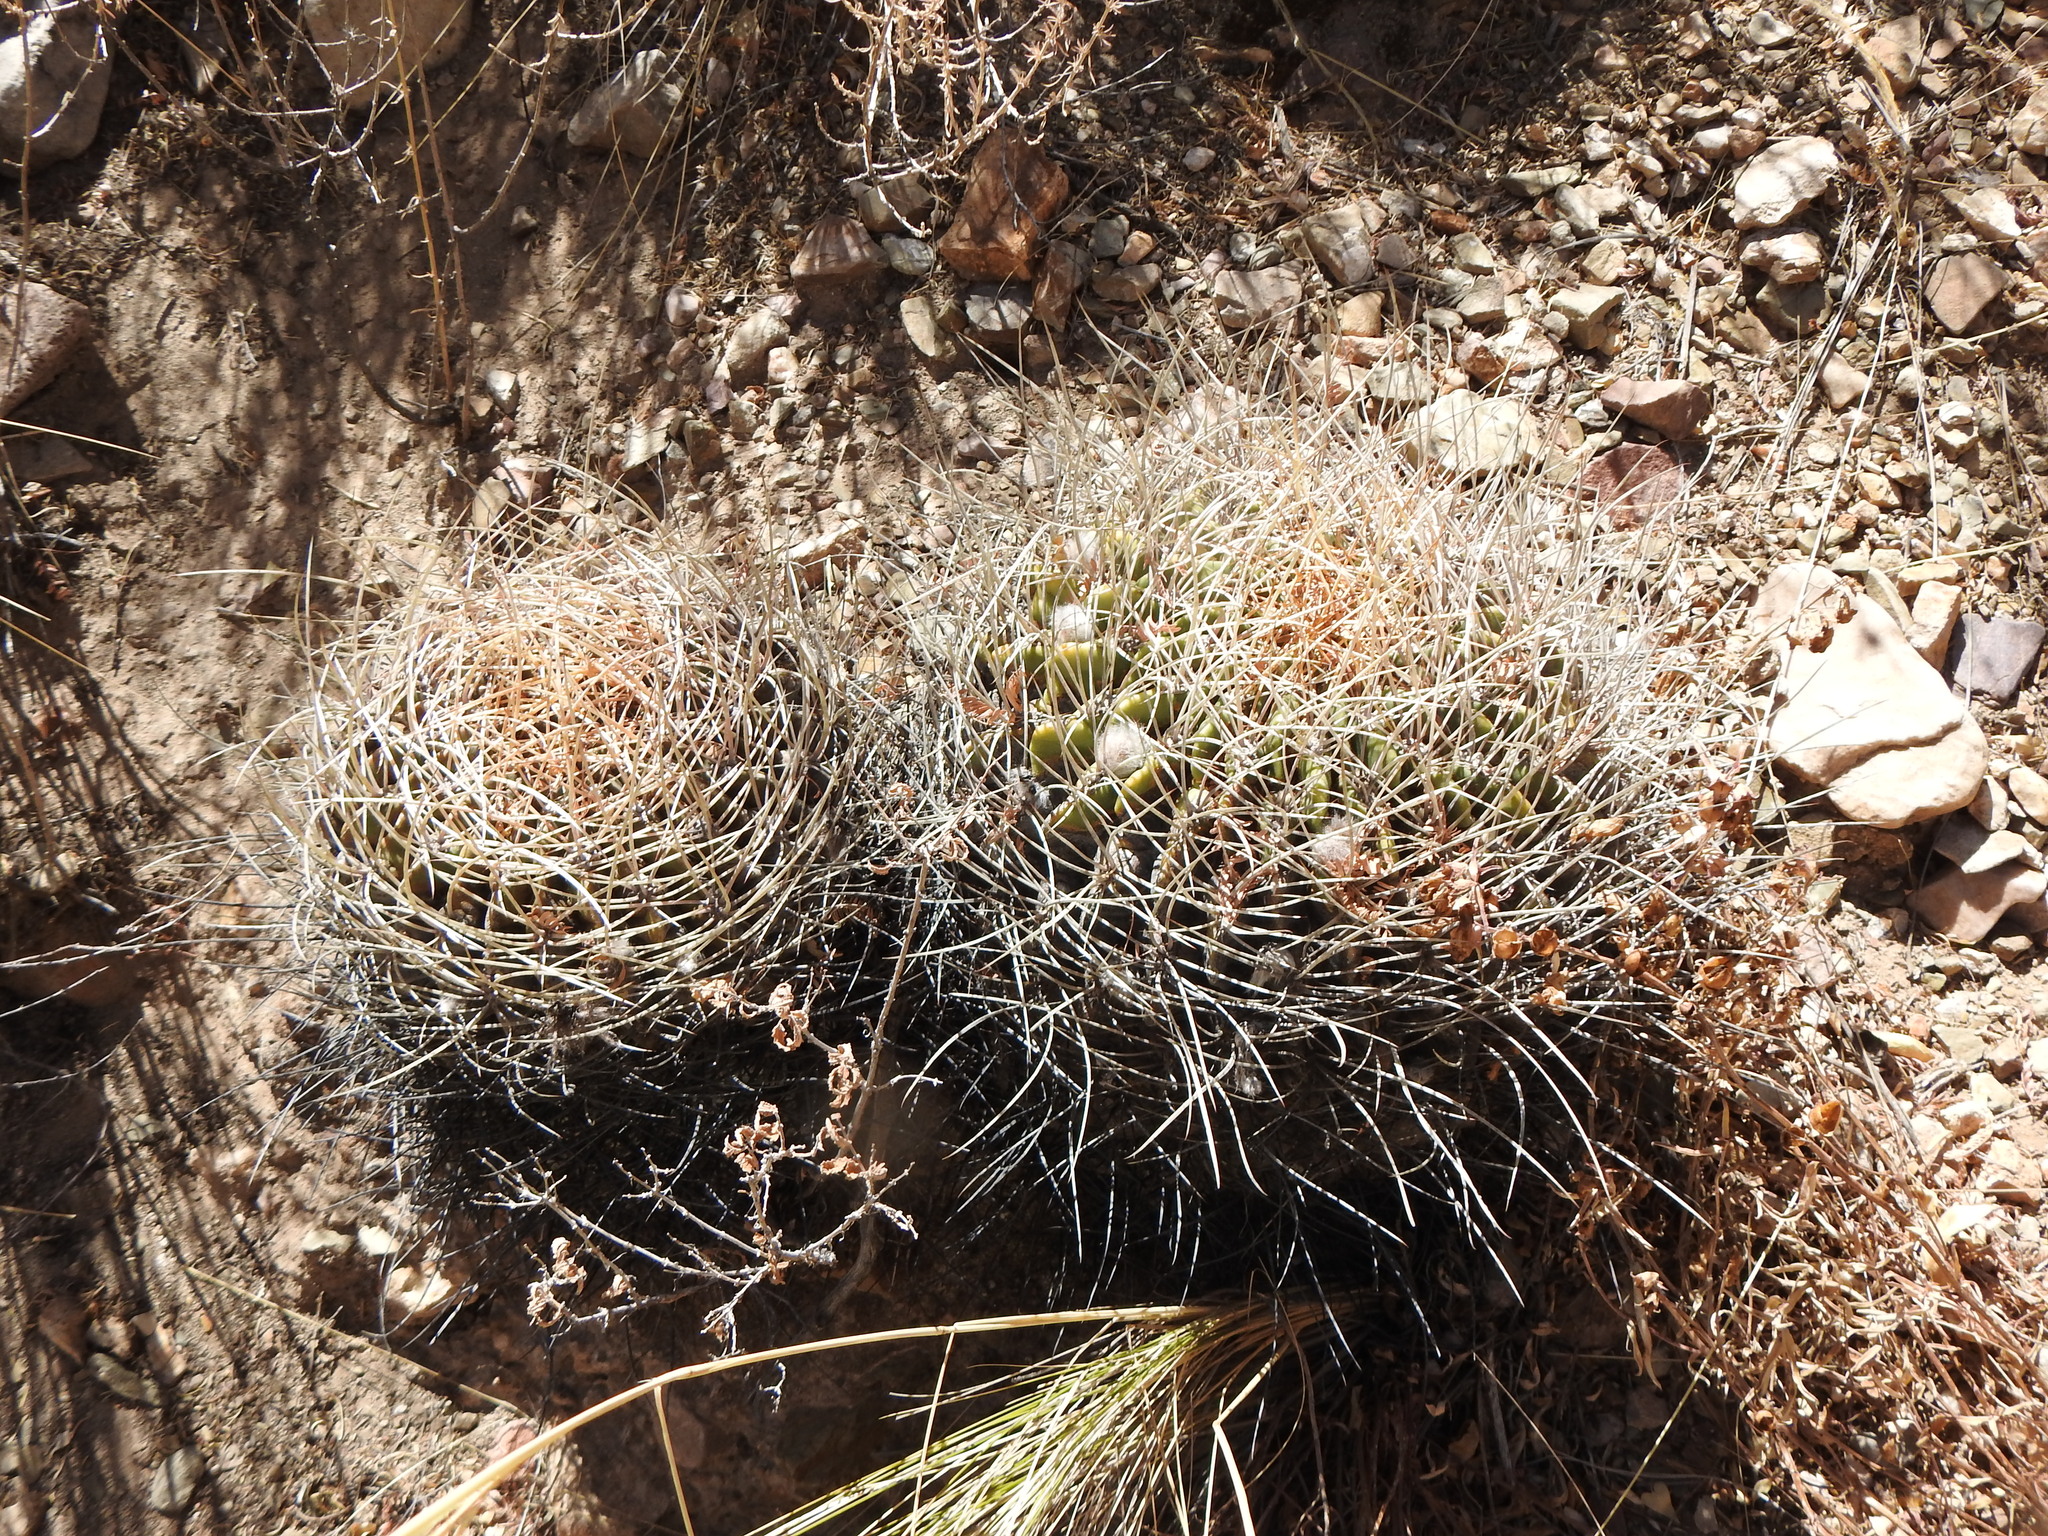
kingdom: Plantae
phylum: Tracheophyta
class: Magnoliopsida
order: Caryophyllales
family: Cactaceae
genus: Lobivia
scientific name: Lobivia ferox
